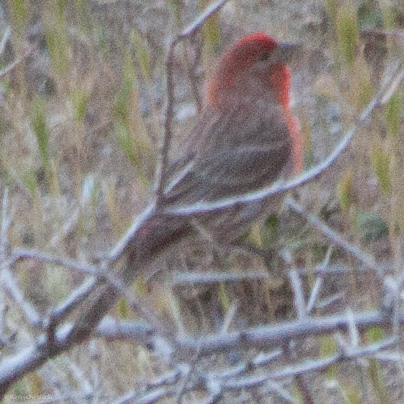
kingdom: Animalia
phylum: Chordata
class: Aves
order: Passeriformes
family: Fringillidae
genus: Haemorhous
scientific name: Haemorhous mexicanus
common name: House finch
